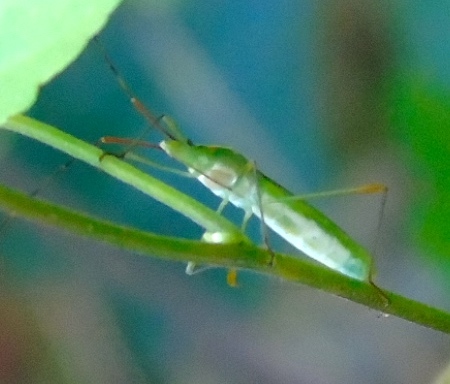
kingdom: Animalia
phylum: Arthropoda
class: Insecta
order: Hemiptera
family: Alydidae
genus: Stenocoris
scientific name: Stenocoris
